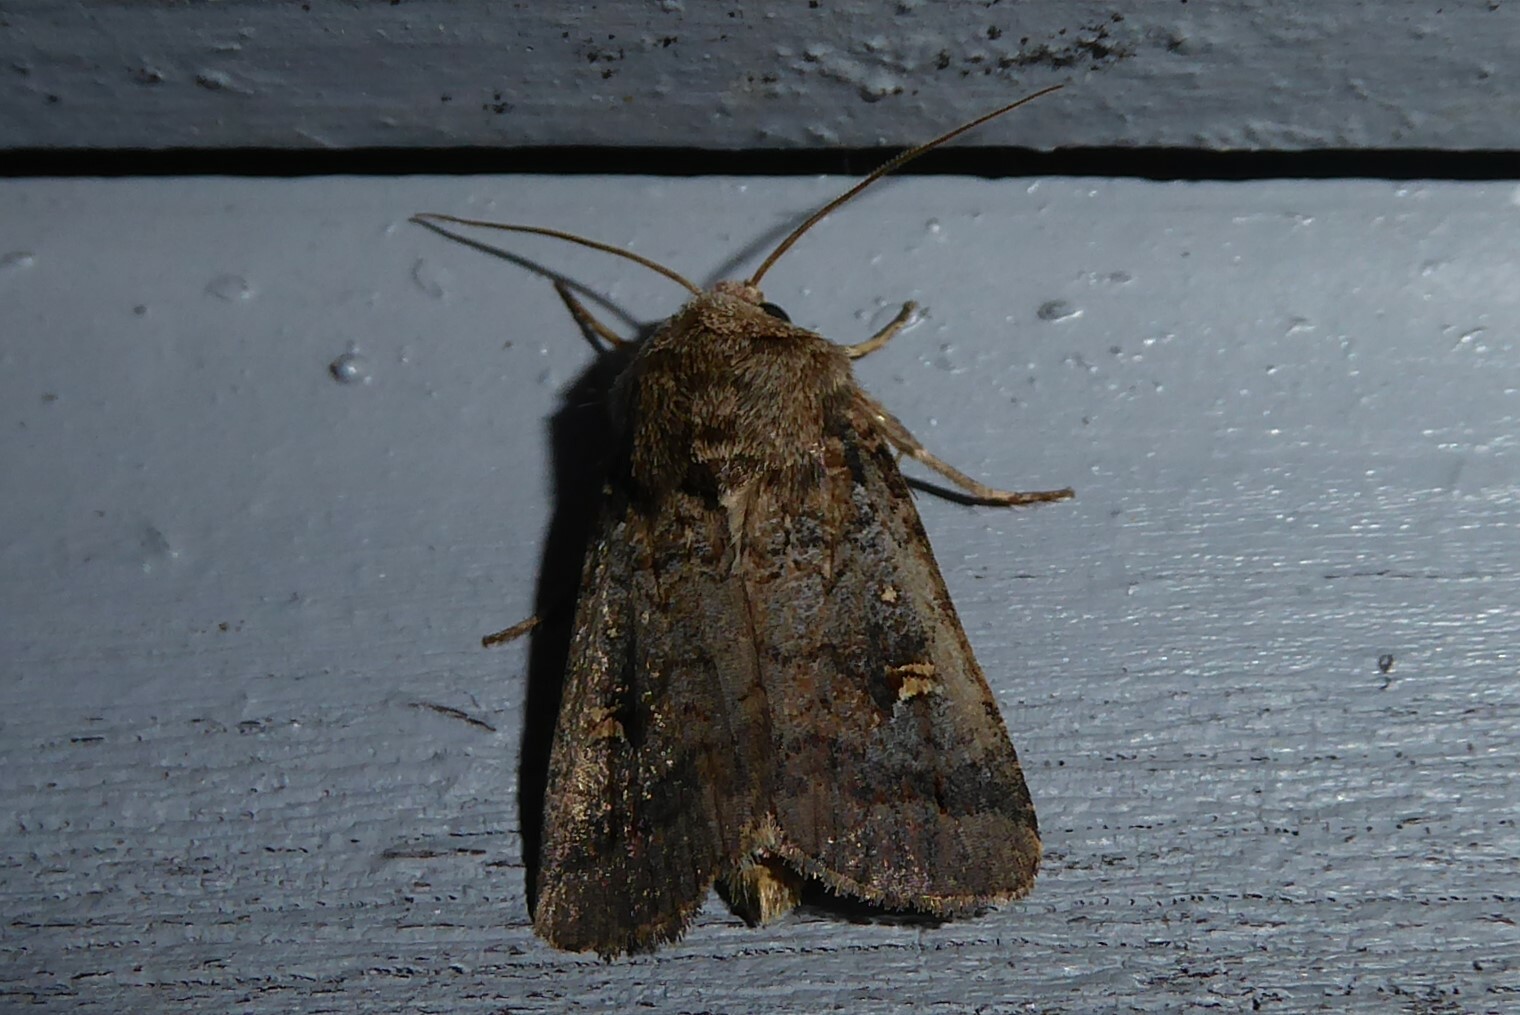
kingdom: Animalia
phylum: Arthropoda
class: Insecta
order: Lepidoptera
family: Noctuidae
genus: Proteuxoa
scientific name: Proteuxoa tetronycha
